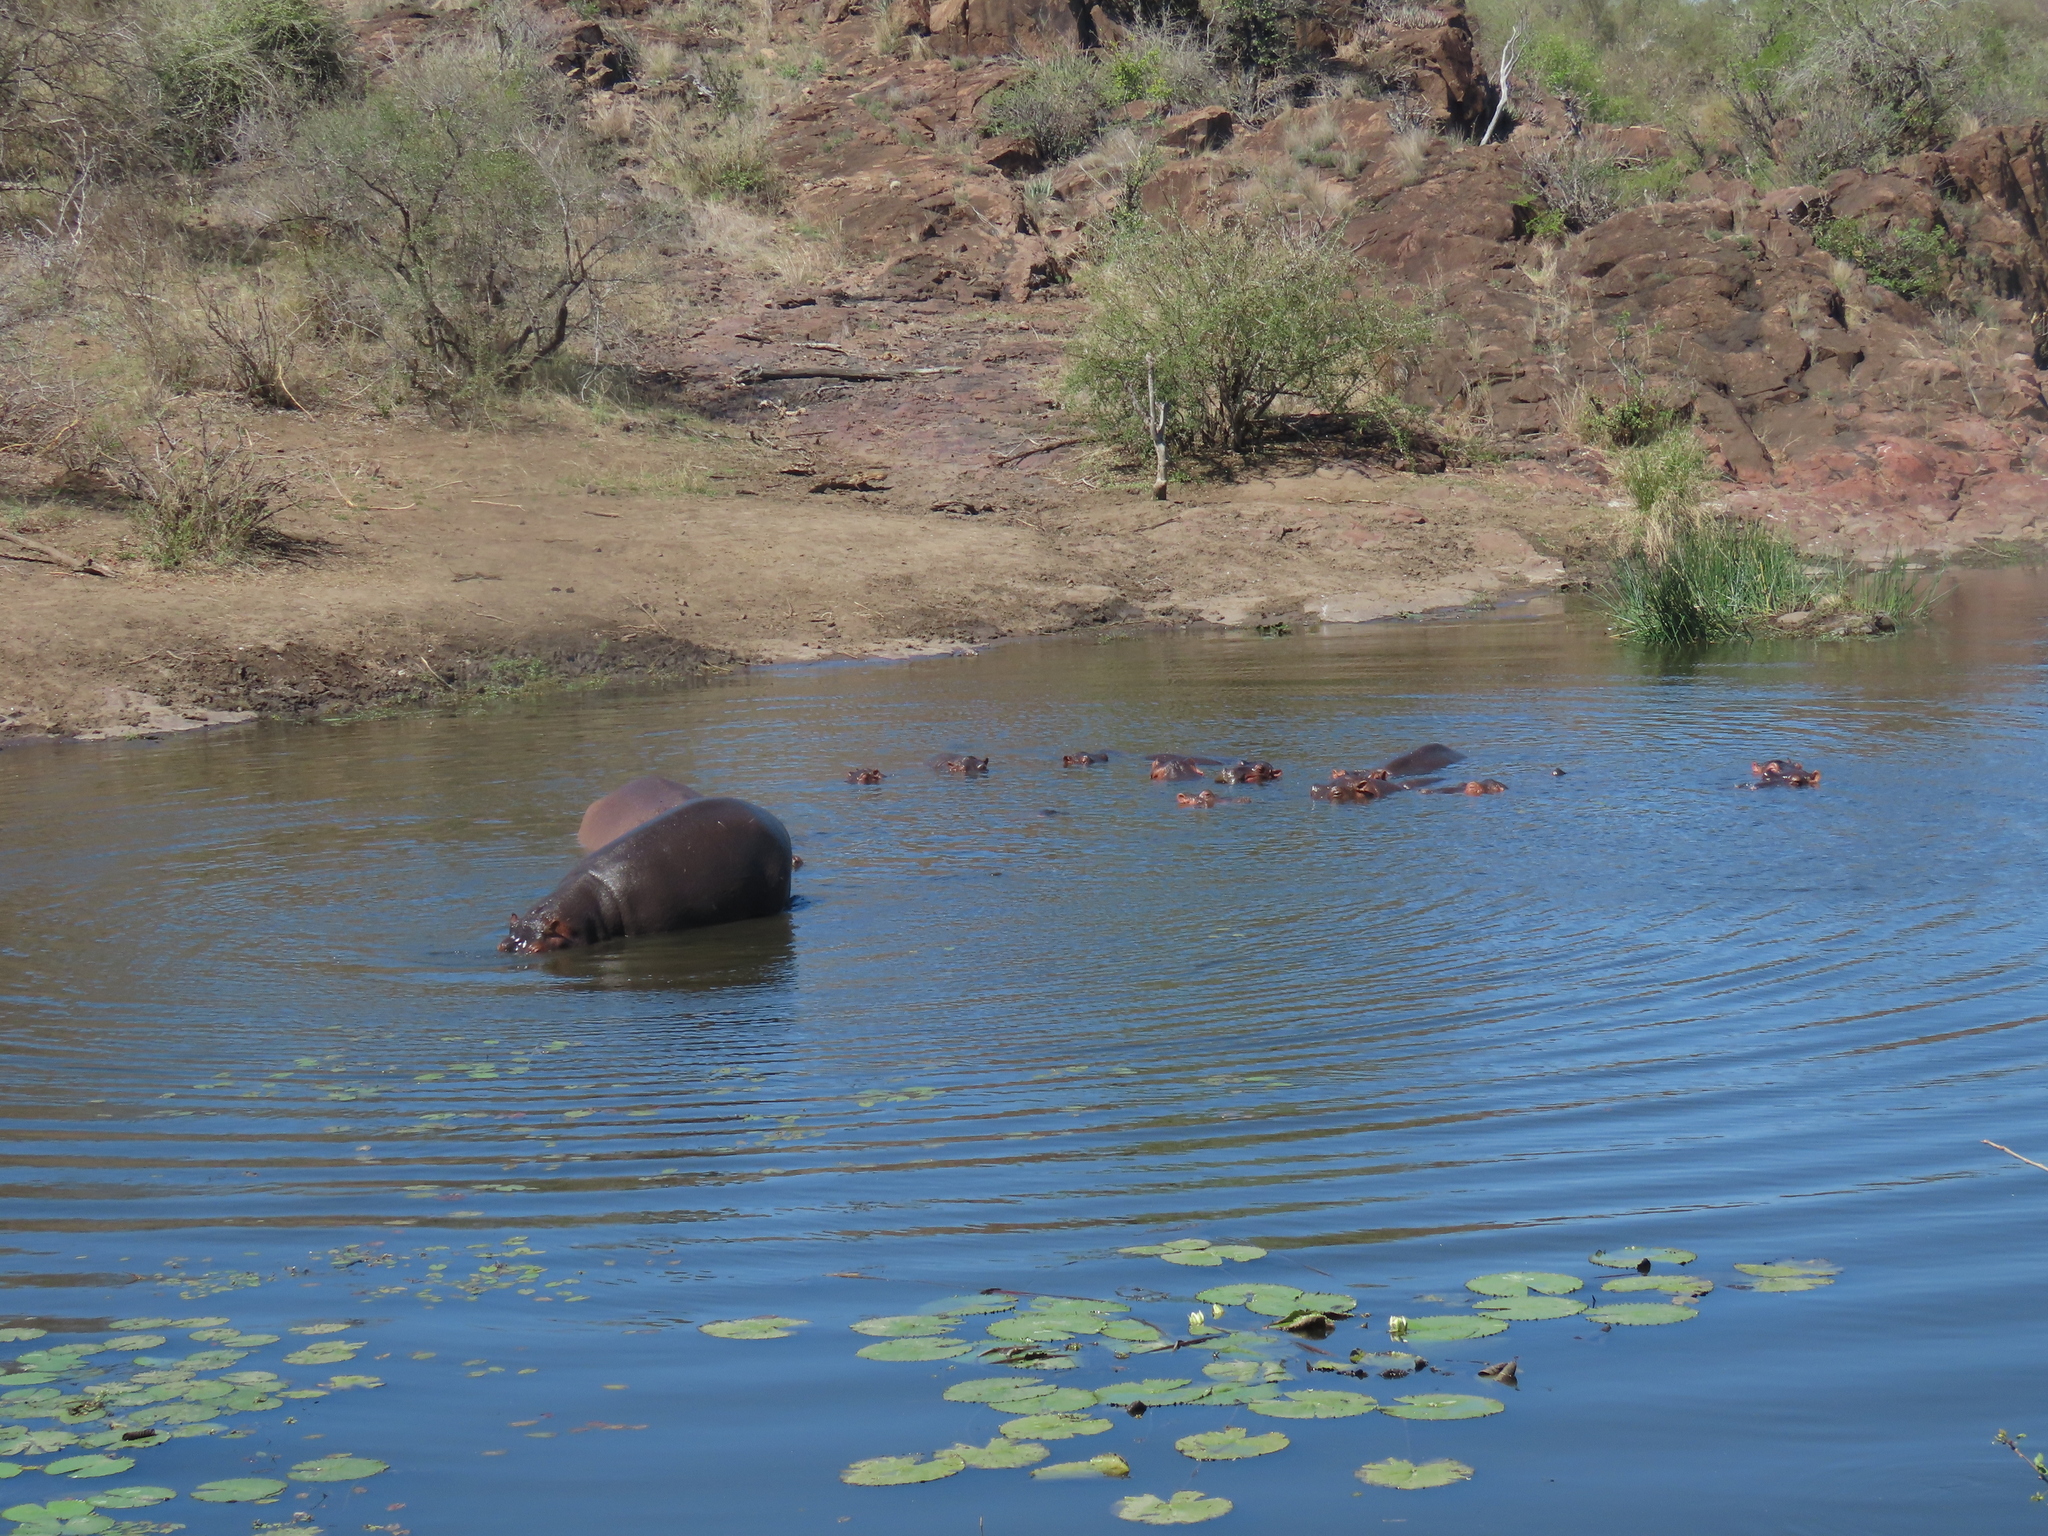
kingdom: Animalia
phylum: Chordata
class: Mammalia
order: Artiodactyla
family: Hippopotamidae
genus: Hippopotamus
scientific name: Hippopotamus amphibius
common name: Common hippopotamus
